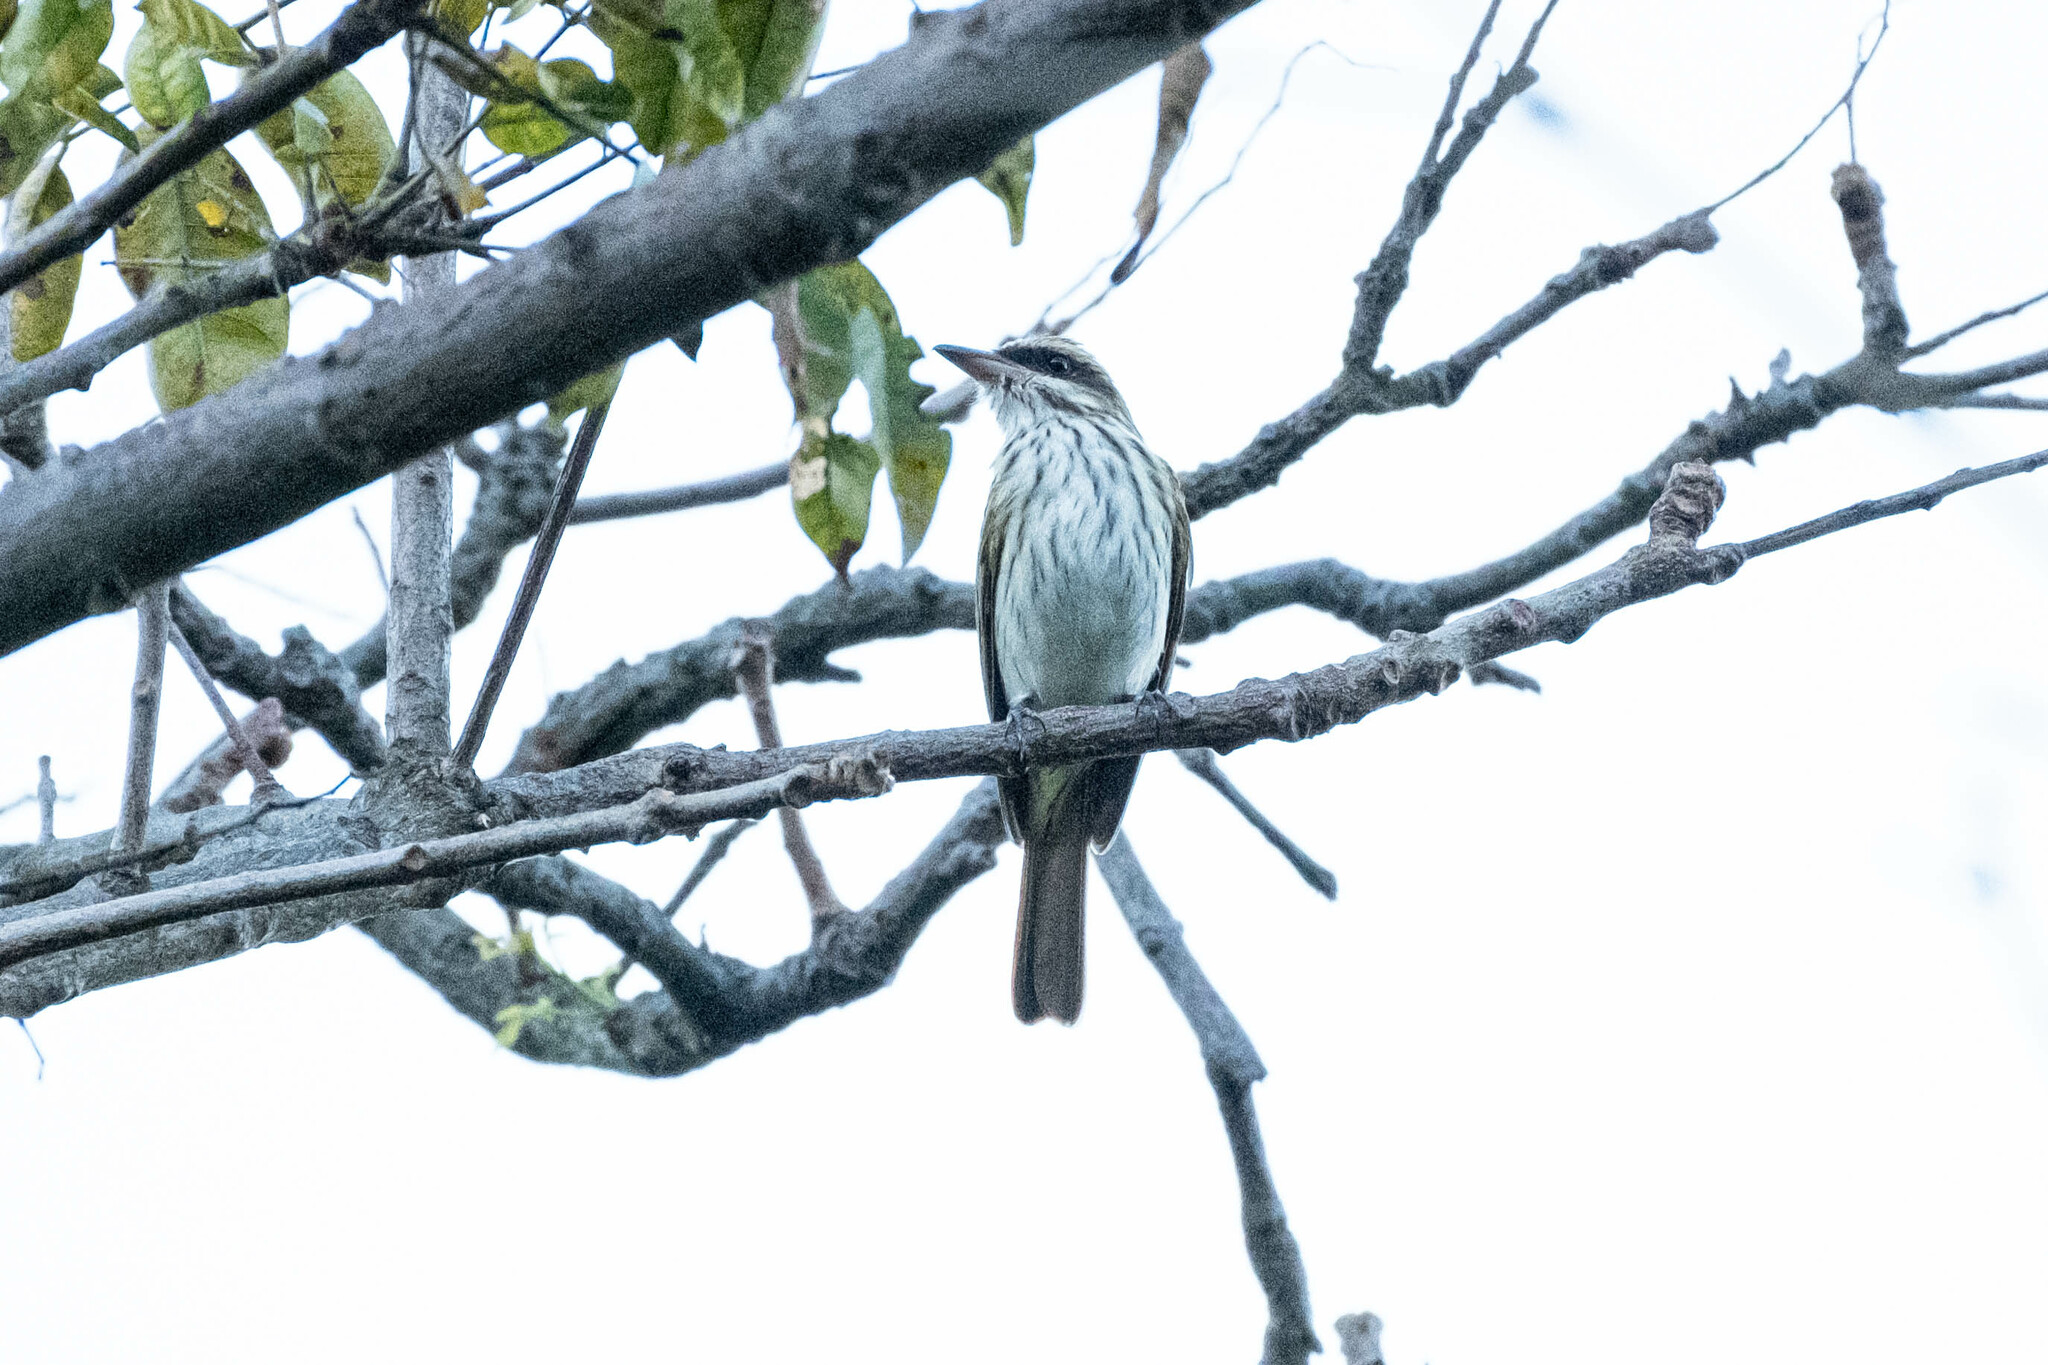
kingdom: Animalia
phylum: Chordata
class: Aves
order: Passeriformes
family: Tyrannidae
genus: Myiodynastes
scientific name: Myiodynastes maculatus
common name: Streaked flycatcher
